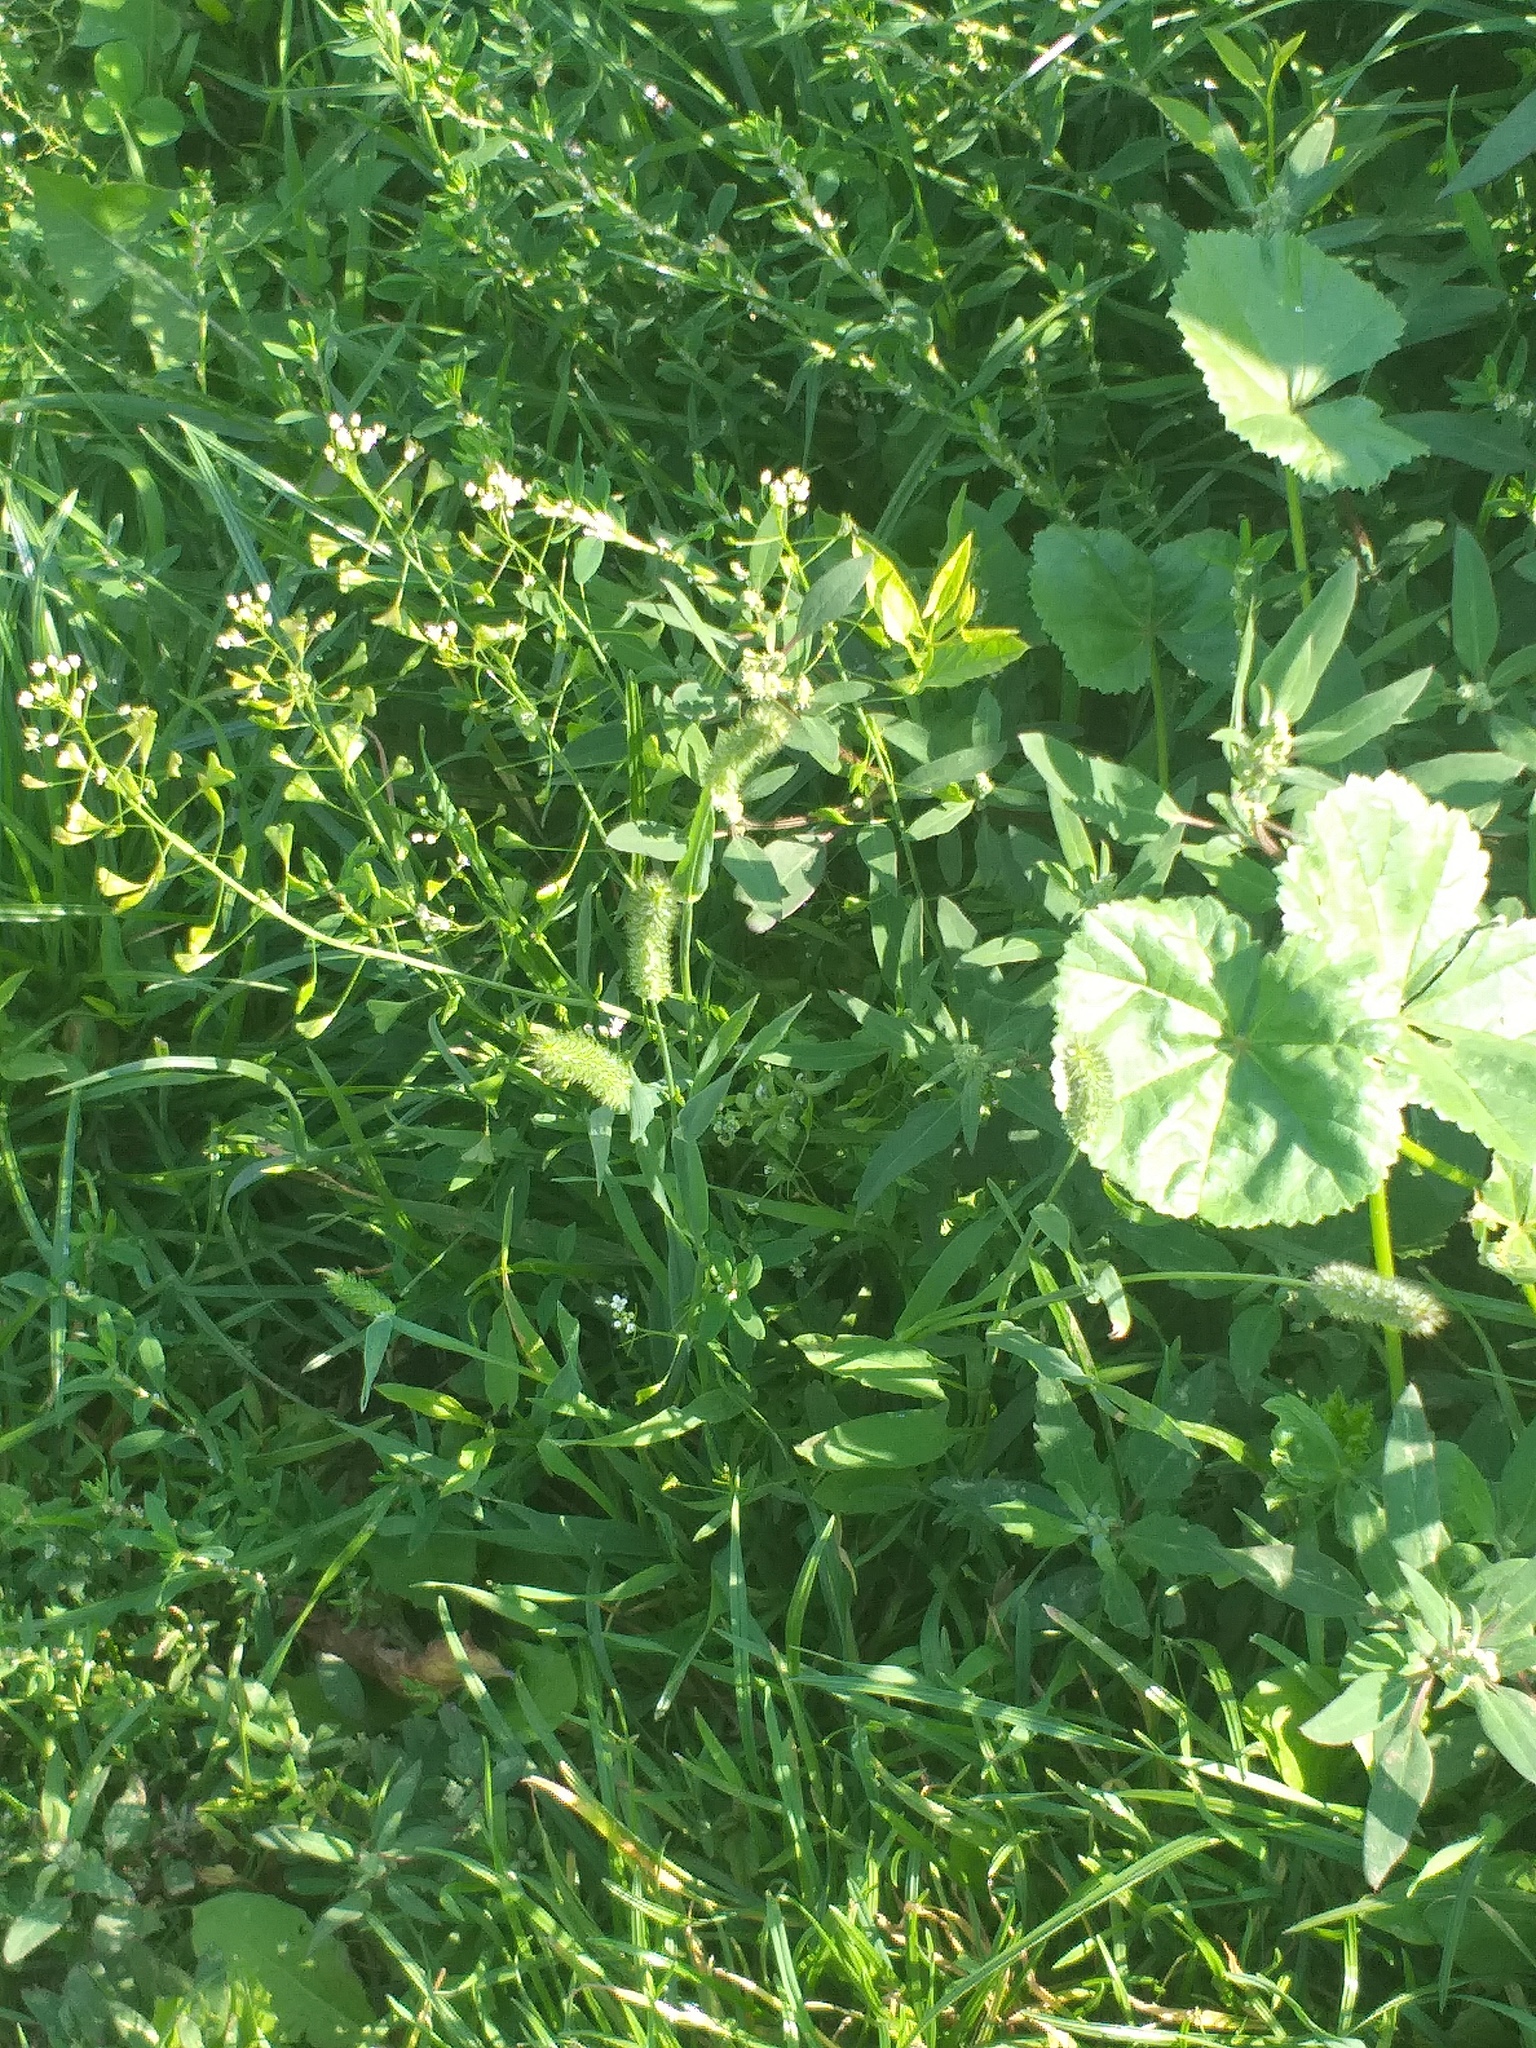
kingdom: Plantae
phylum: Tracheophyta
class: Liliopsida
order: Poales
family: Poaceae
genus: Phleum
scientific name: Phleum pratense
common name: Timothy grass
